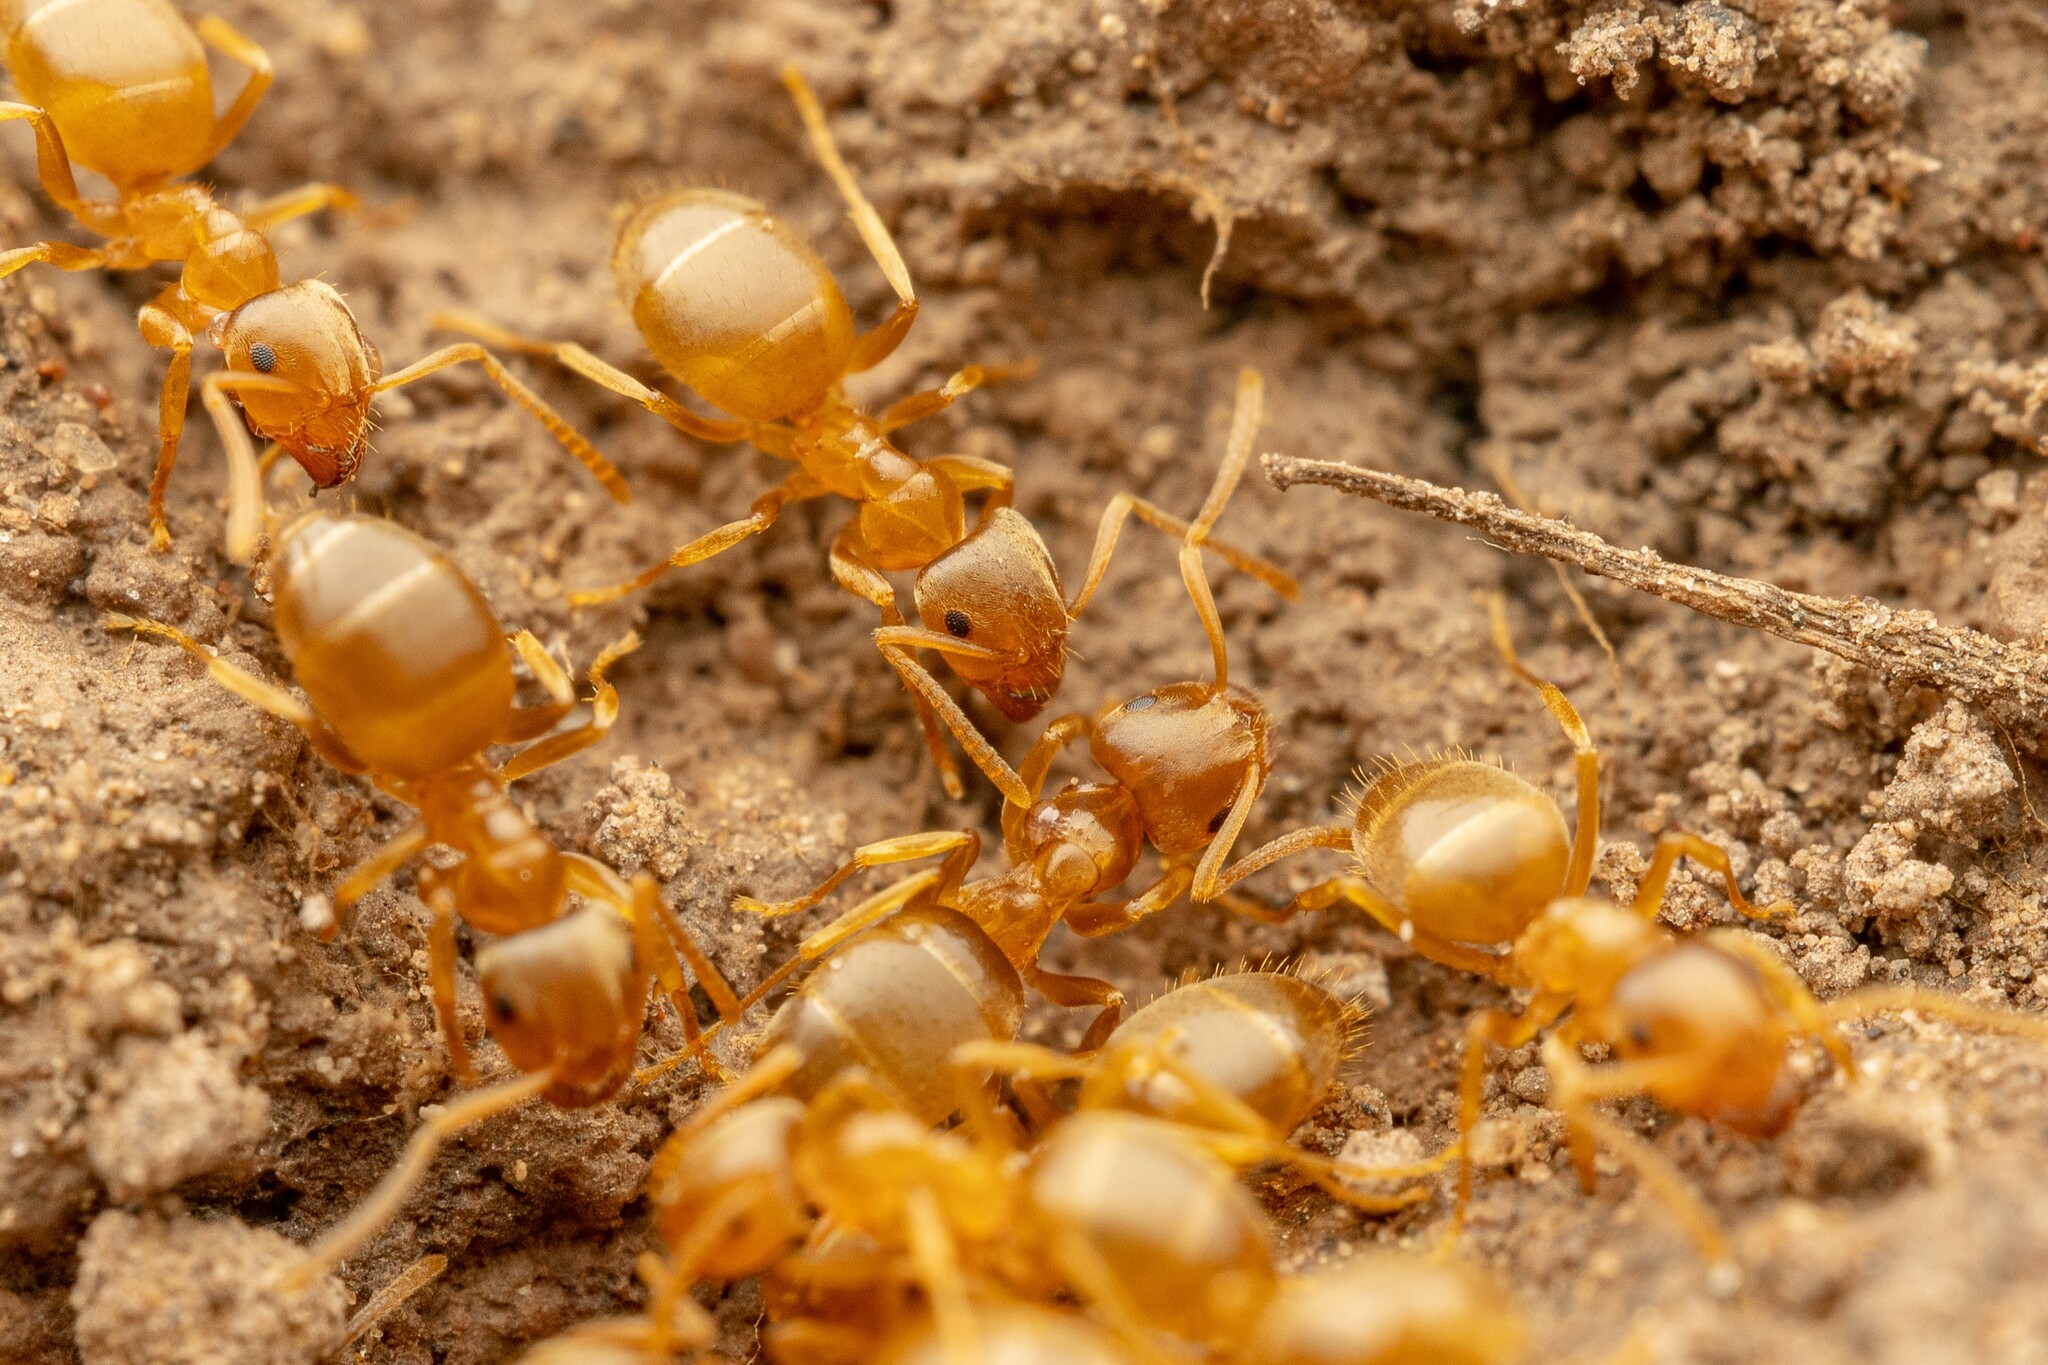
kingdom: Animalia
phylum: Arthropoda
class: Insecta
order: Hymenoptera
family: Formicidae
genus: Lasius
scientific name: Lasius sitiens
